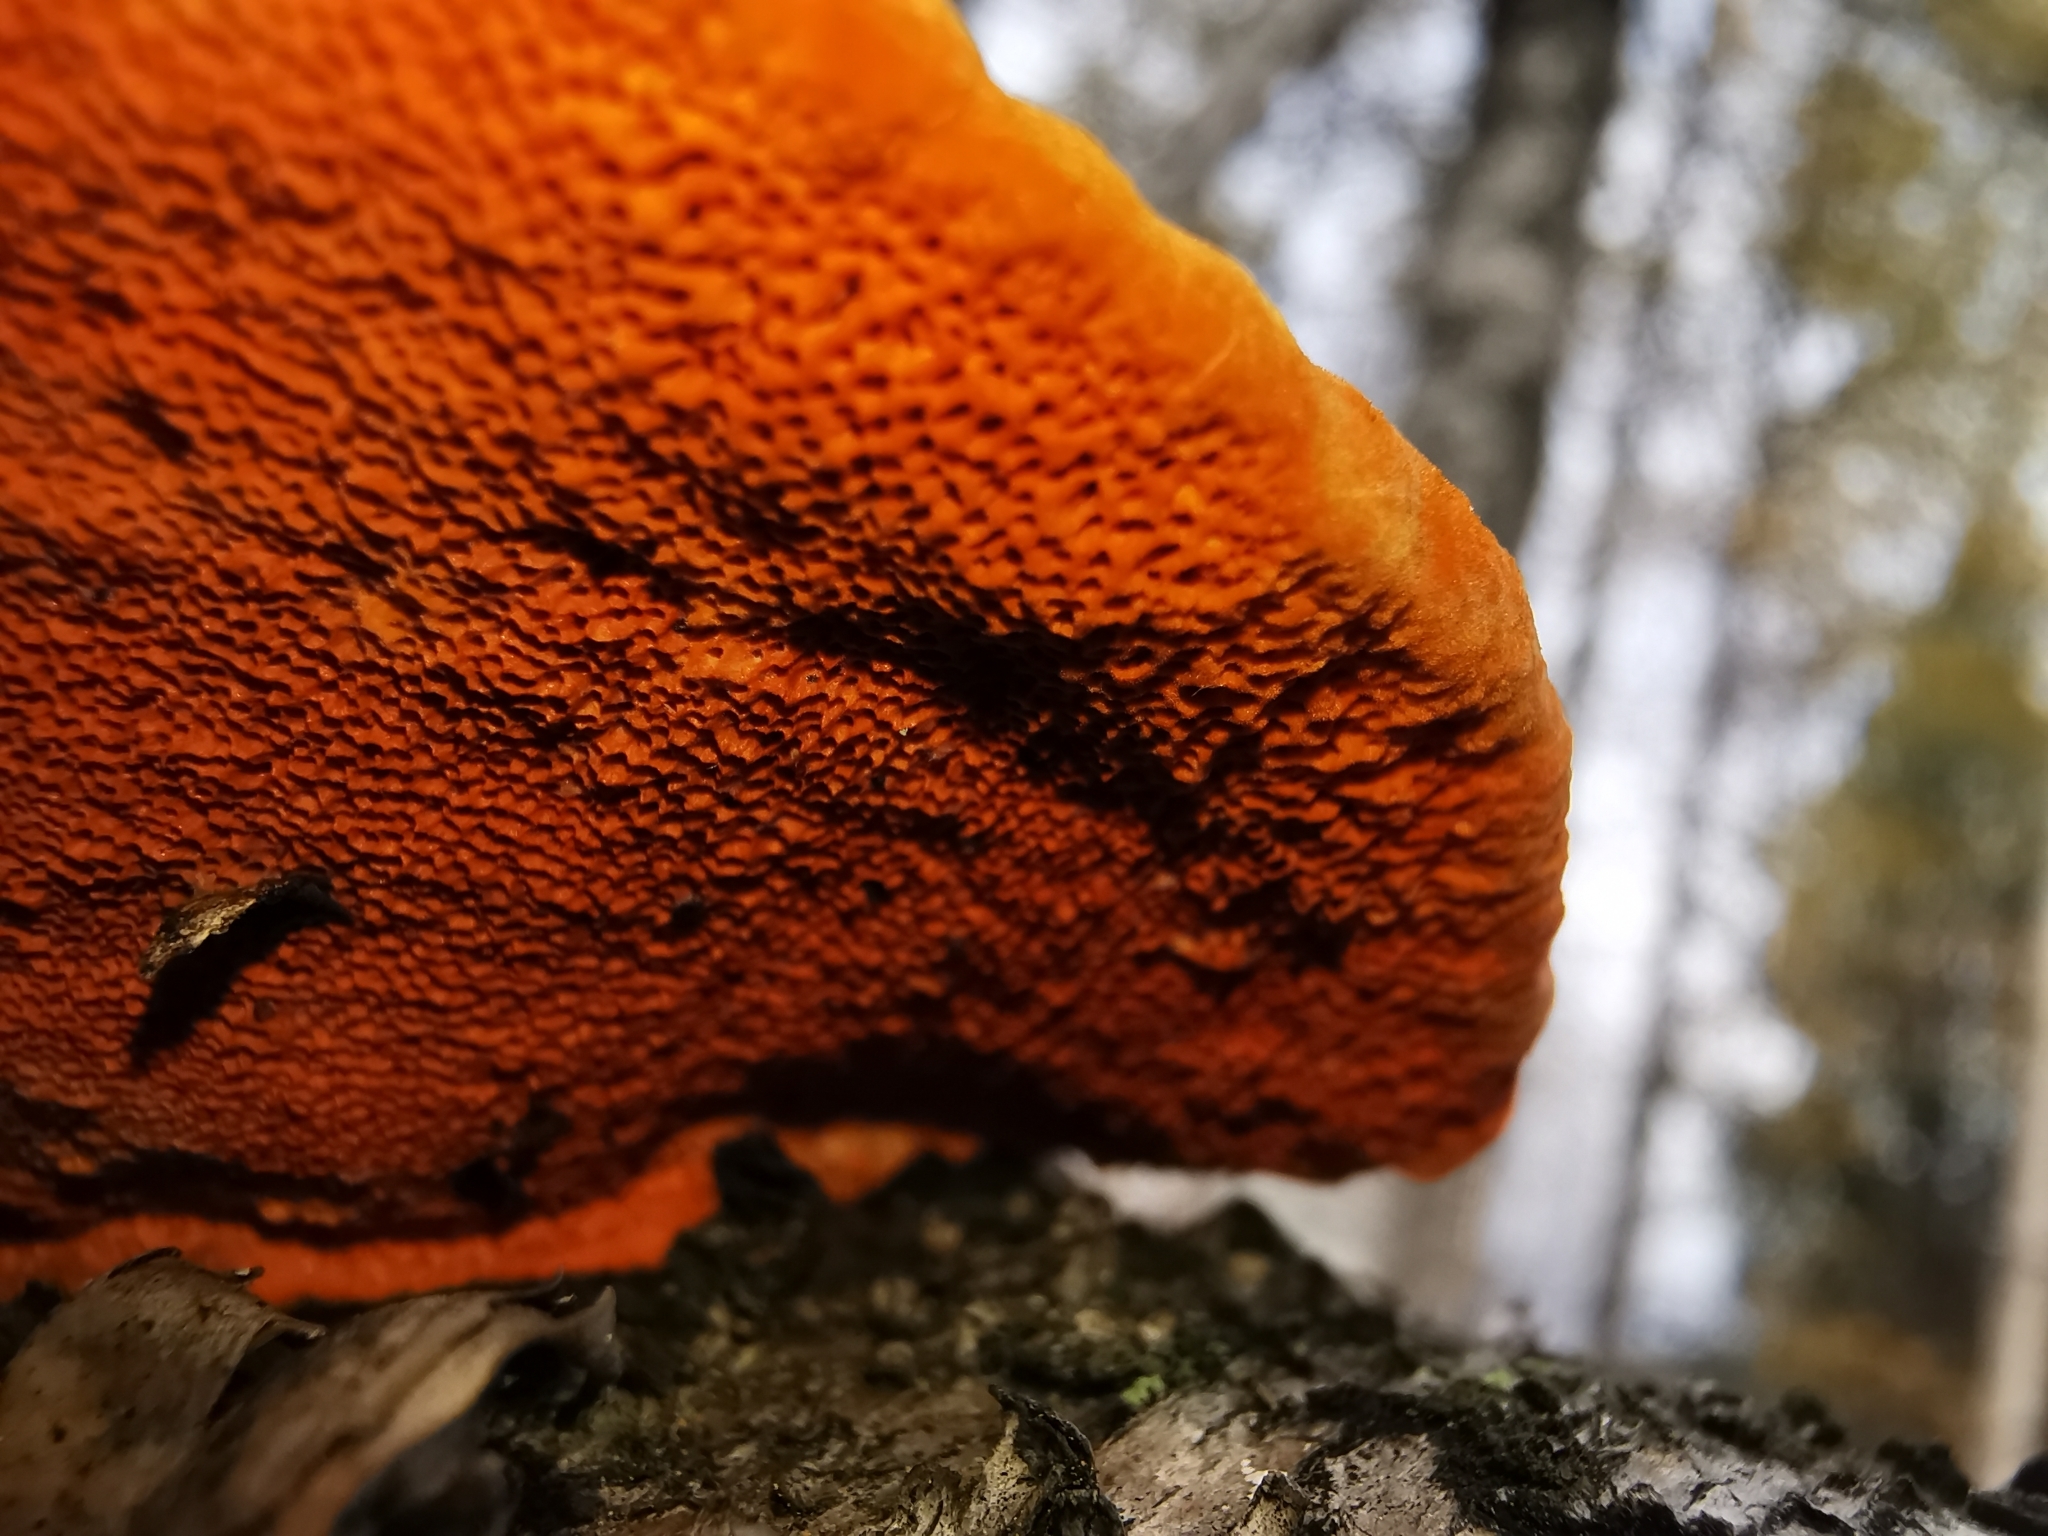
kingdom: Fungi
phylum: Basidiomycota
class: Agaricomycetes
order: Polyporales
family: Polyporaceae
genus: Trametes
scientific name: Trametes cinnabarina
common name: Northern cinnabar polypore
